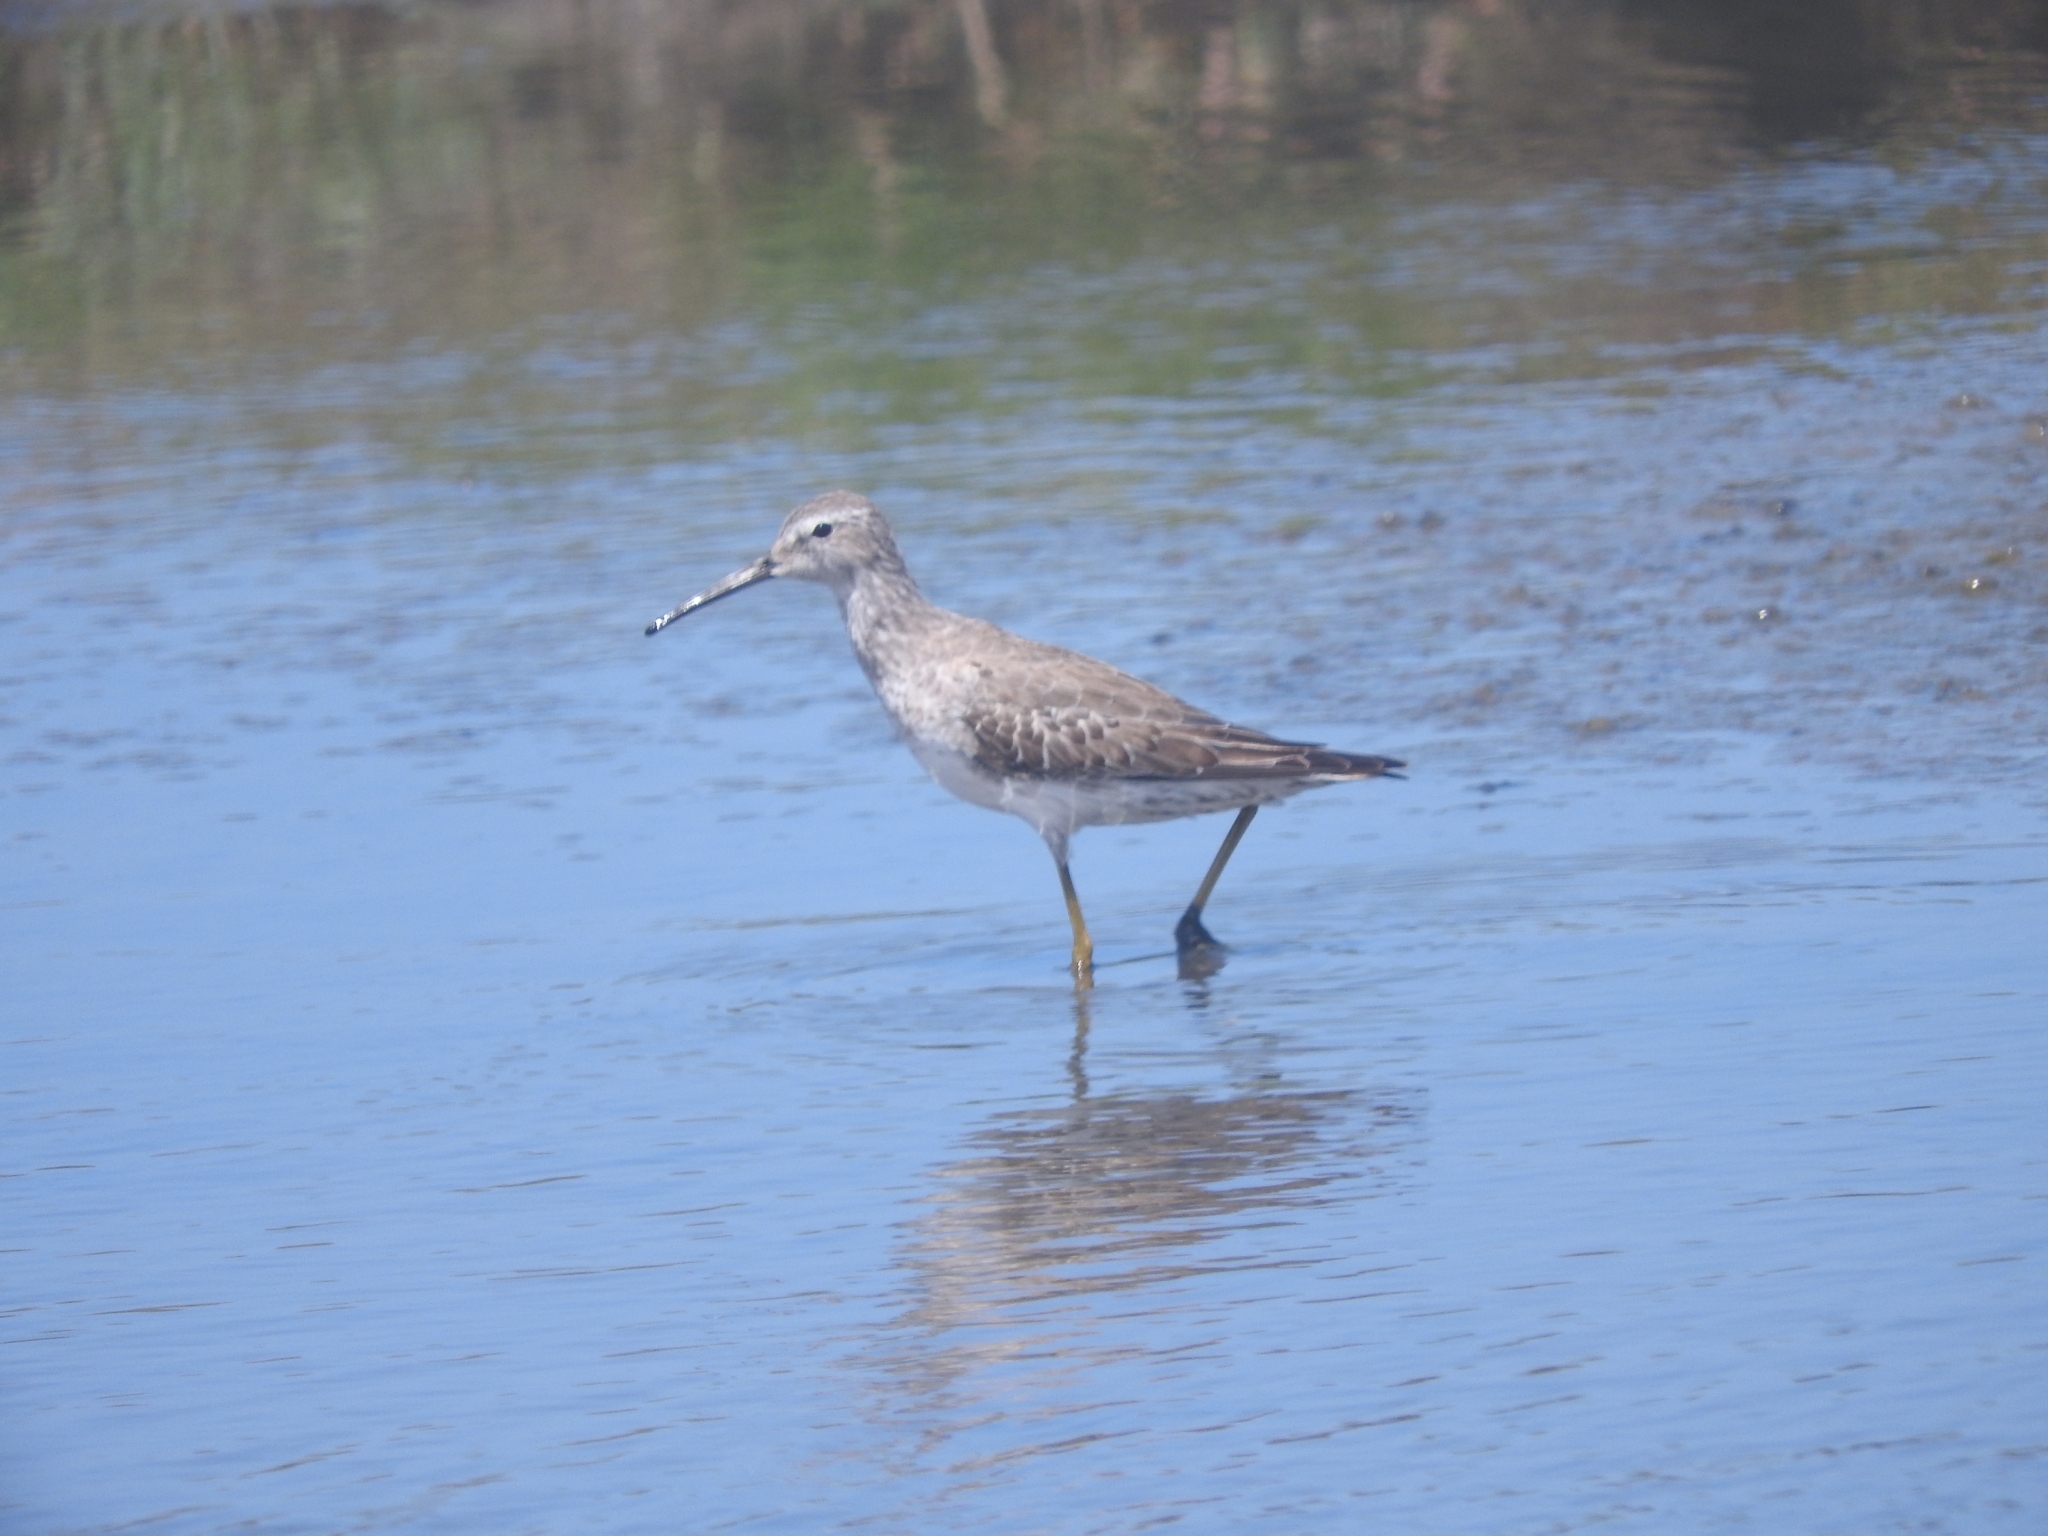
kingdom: Animalia
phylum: Chordata
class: Aves
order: Charadriiformes
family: Scolopacidae
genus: Calidris
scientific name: Calidris himantopus
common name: Stilt sandpiper
